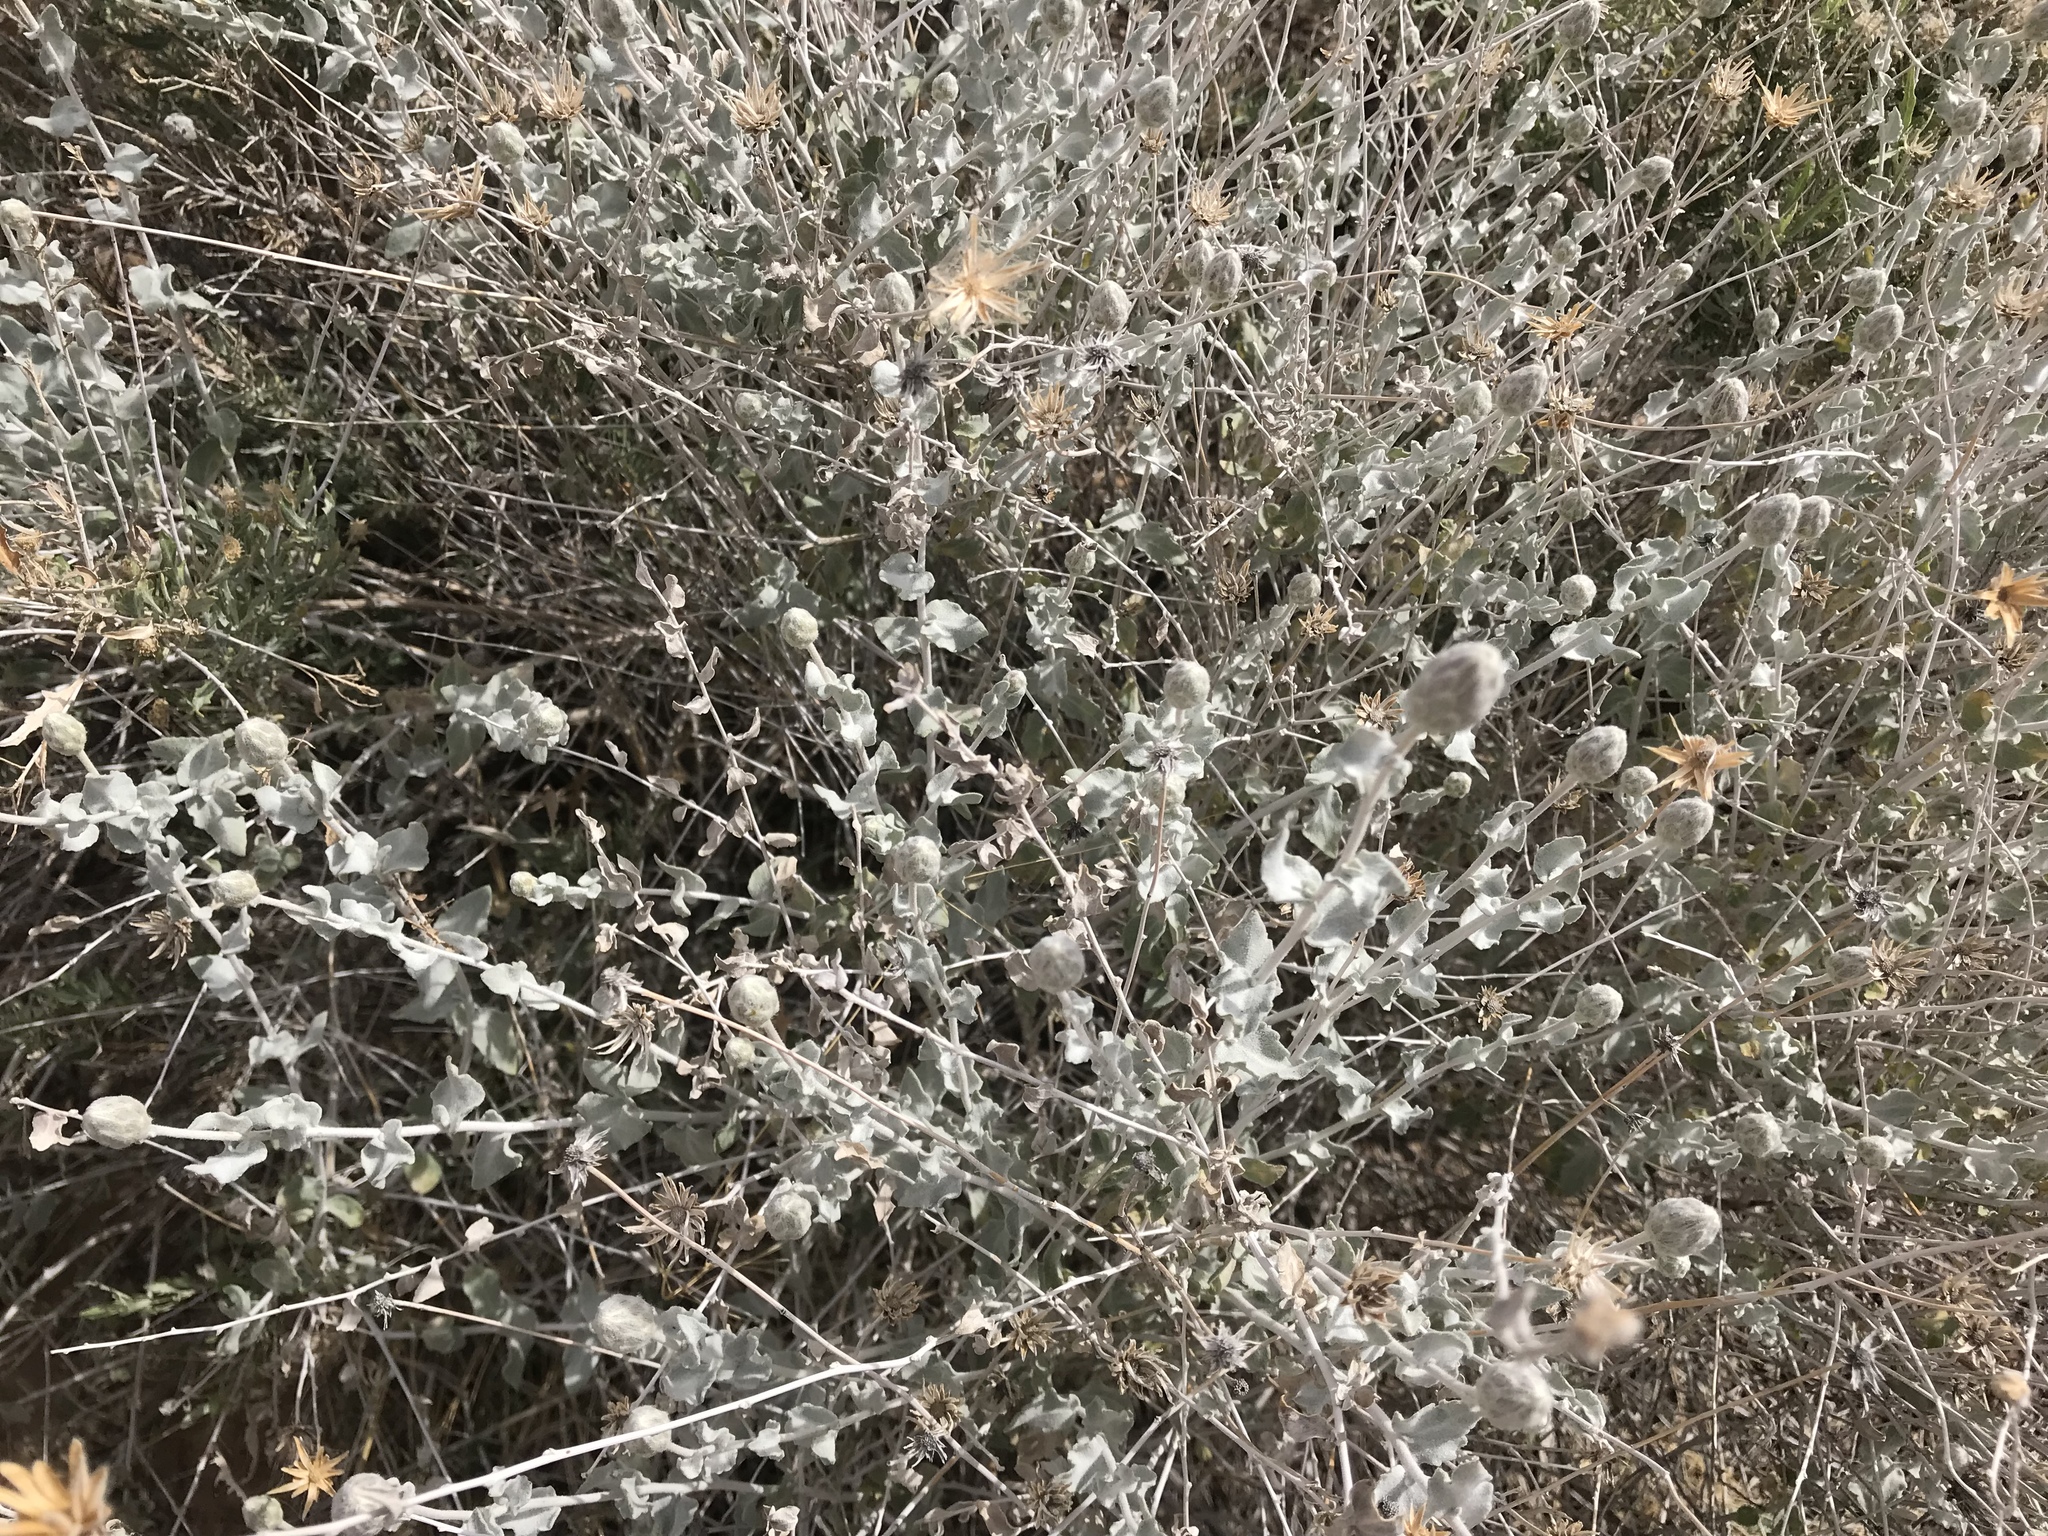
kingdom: Plantae
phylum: Tracheophyta
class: Magnoliopsida
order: Asterales
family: Asteraceae
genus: Brickellia
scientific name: Brickellia incana
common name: Woolly brickelbush
